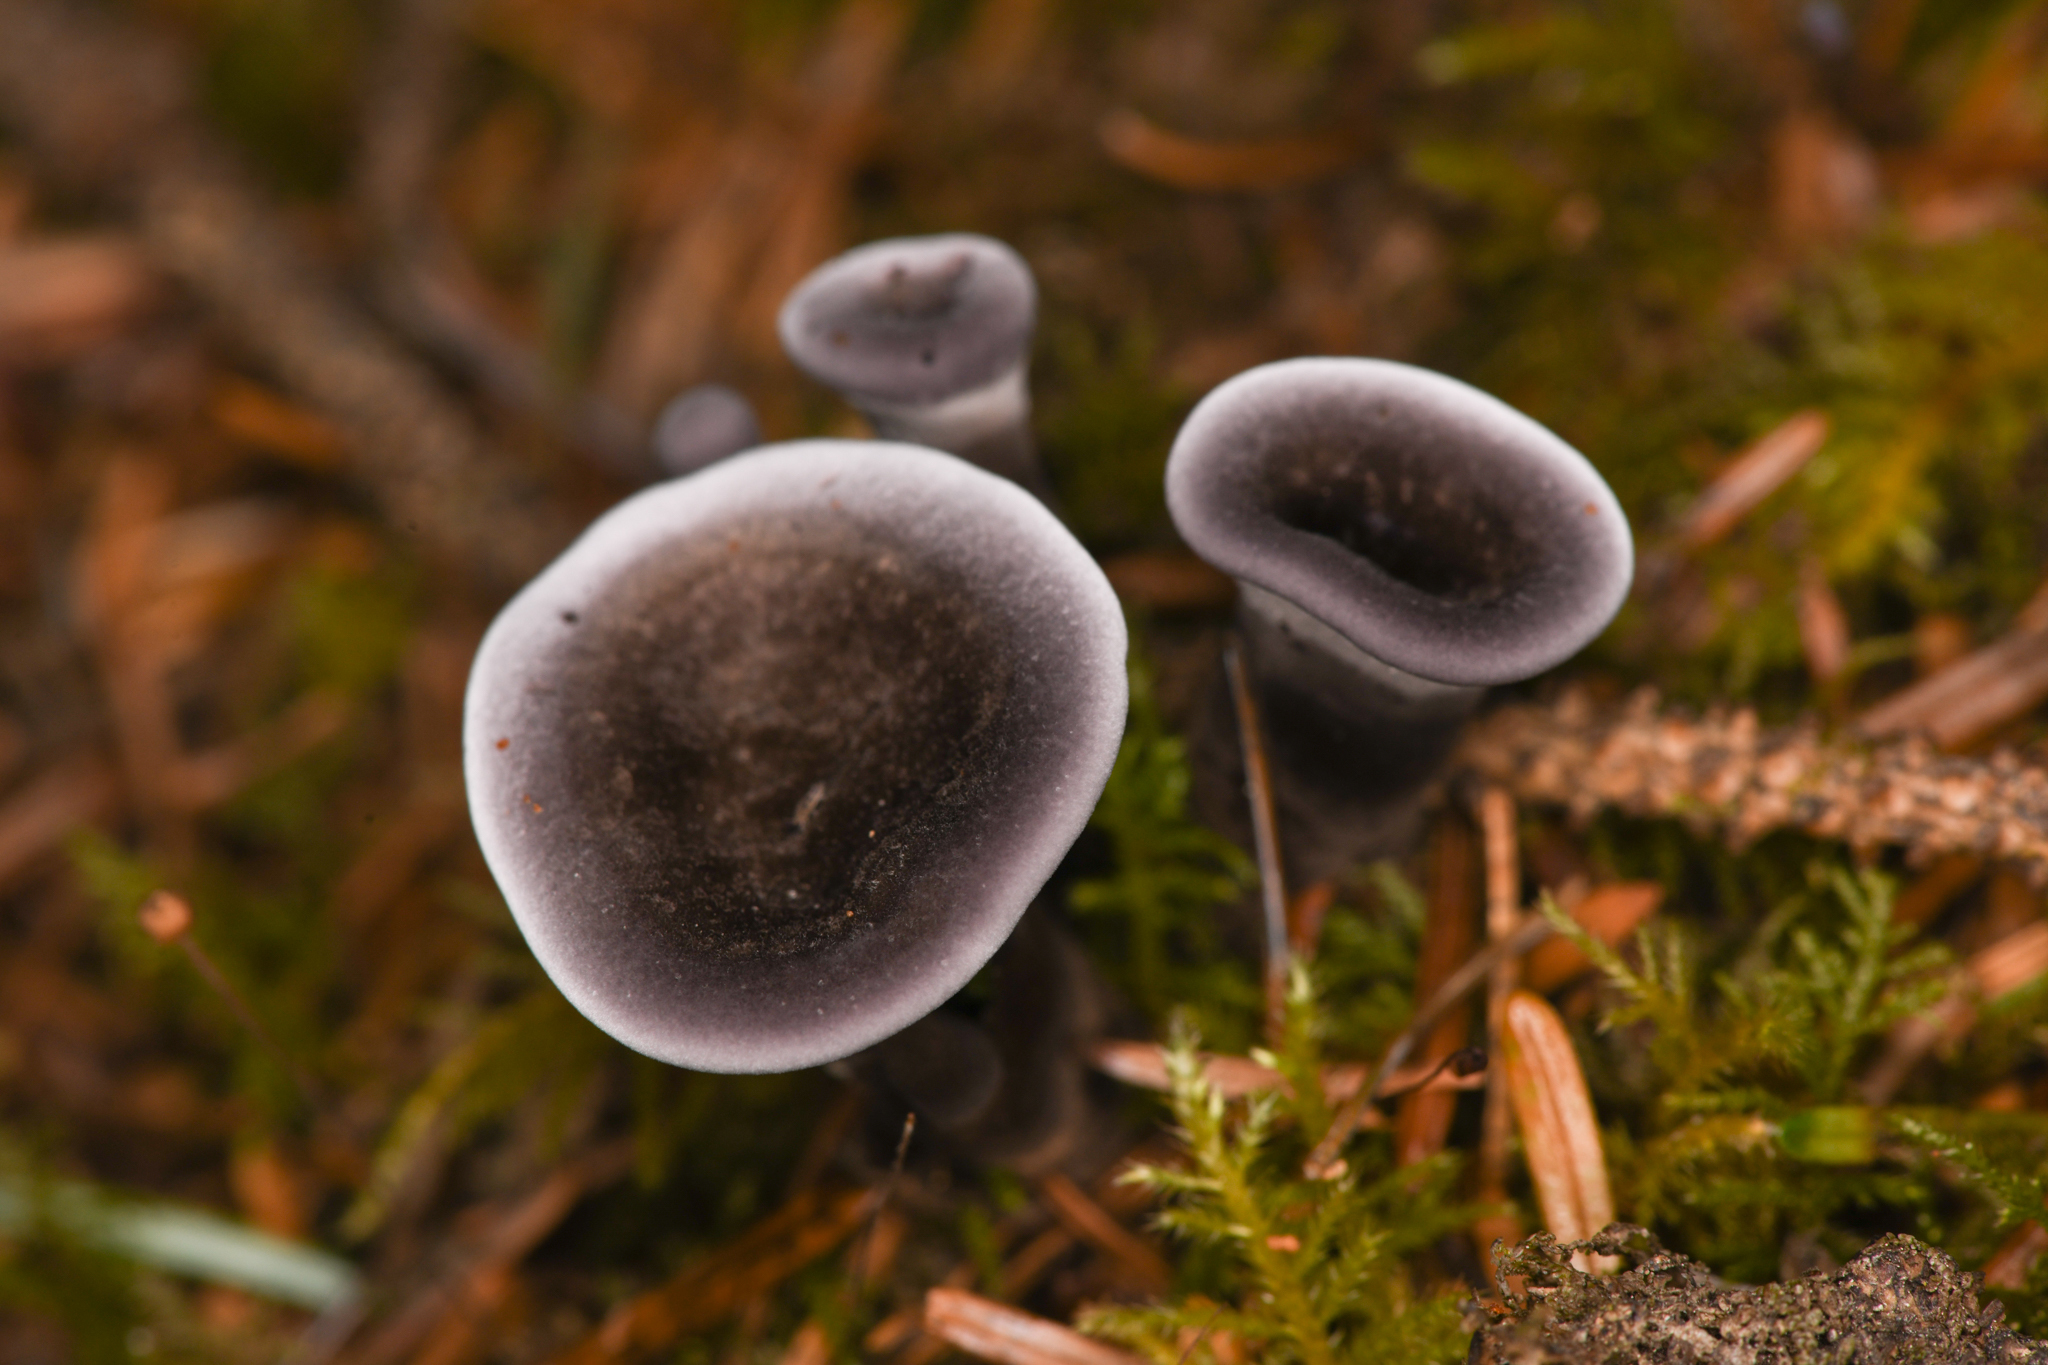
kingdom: Fungi
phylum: Basidiomycota
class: Agaricomycetes
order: Thelephorales
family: Thelephoraceae
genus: Phellodon
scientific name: Phellodon atratus
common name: Blue-black tooth
